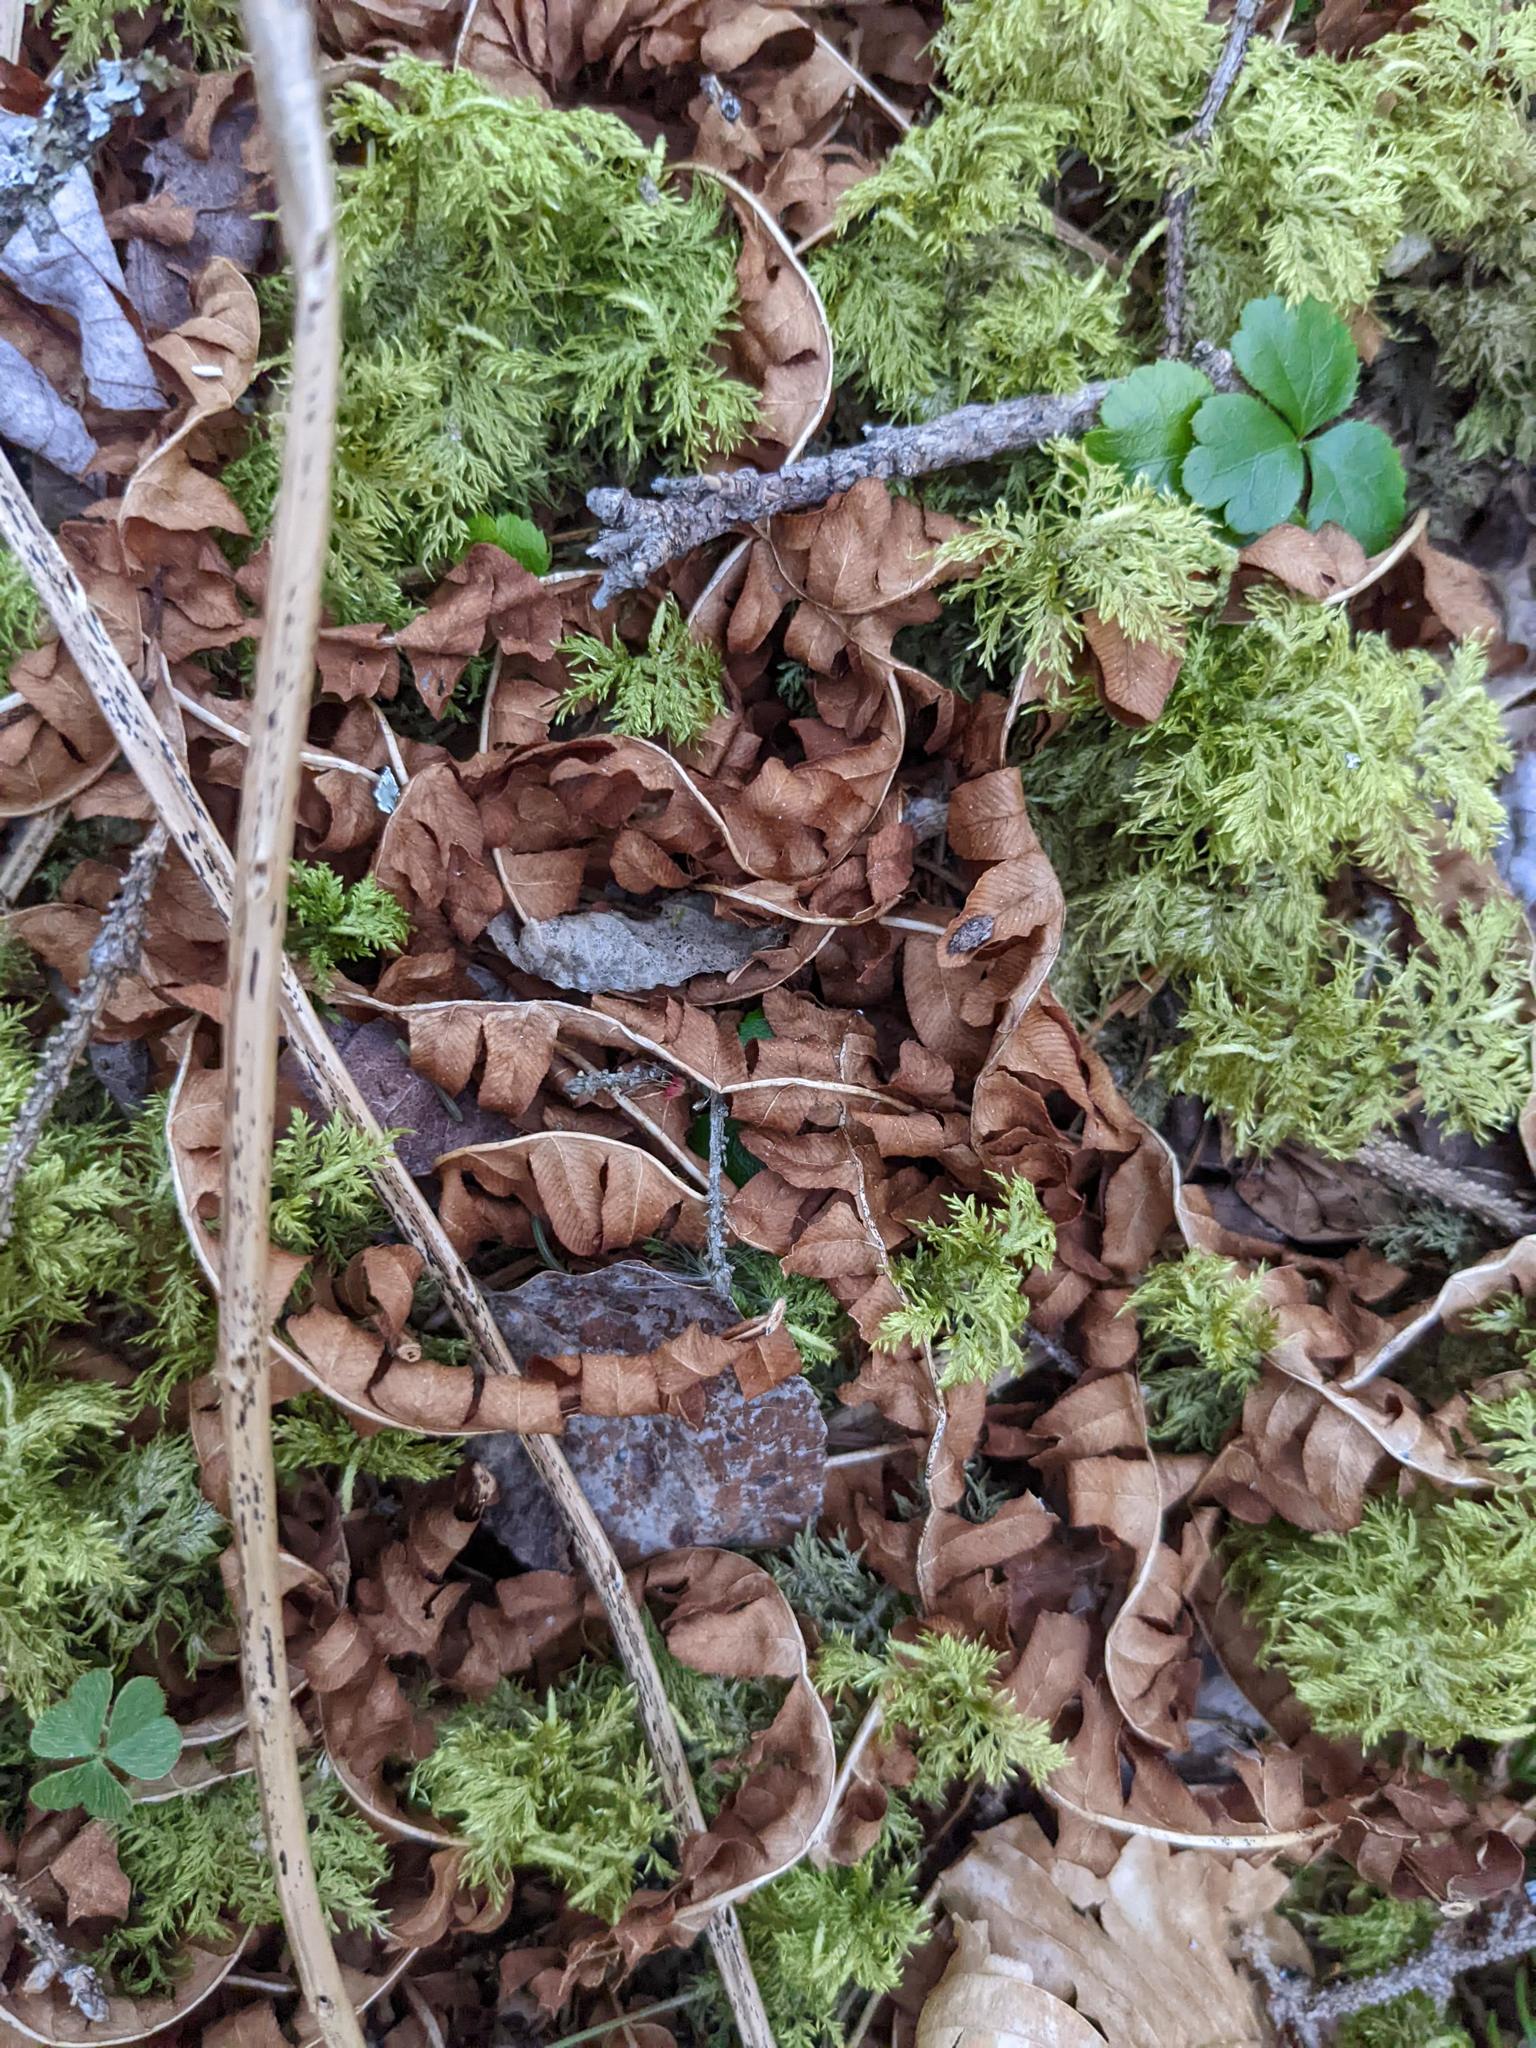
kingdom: Plantae
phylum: Tracheophyta
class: Polypodiopsida
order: Polypodiales
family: Dennstaedtiaceae
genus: Pteridium
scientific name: Pteridium aquilinum
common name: Bracken
